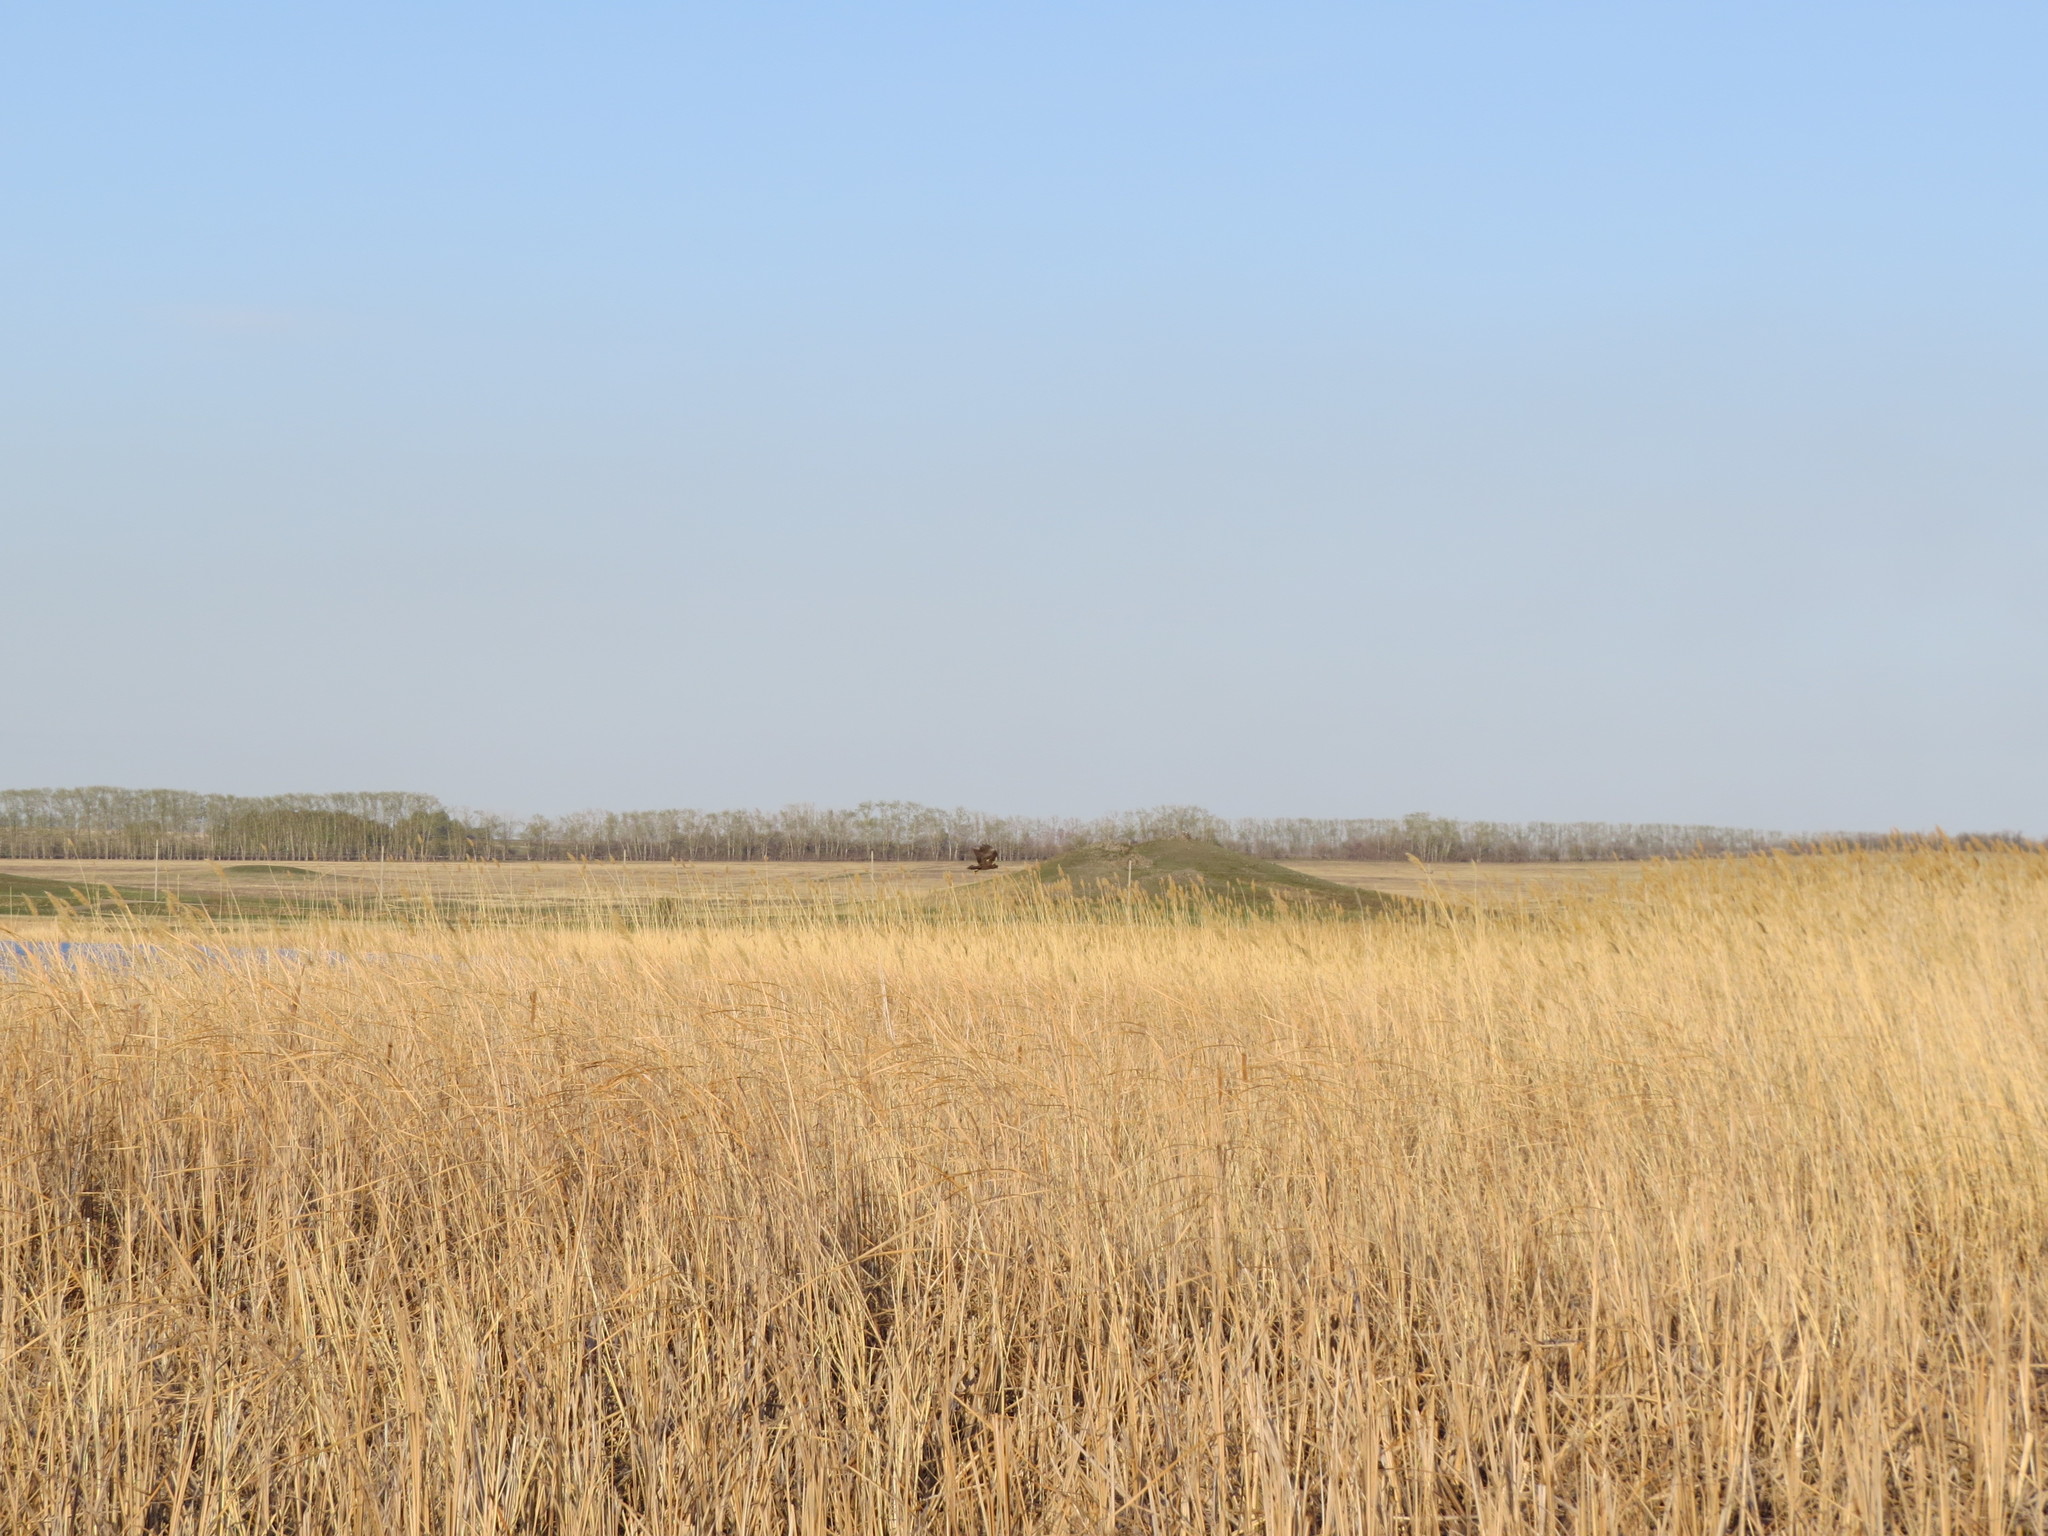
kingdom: Animalia
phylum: Chordata
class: Aves
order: Accipitriformes
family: Accipitridae
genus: Circus
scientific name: Circus aeruginosus
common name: Western marsh harrier
